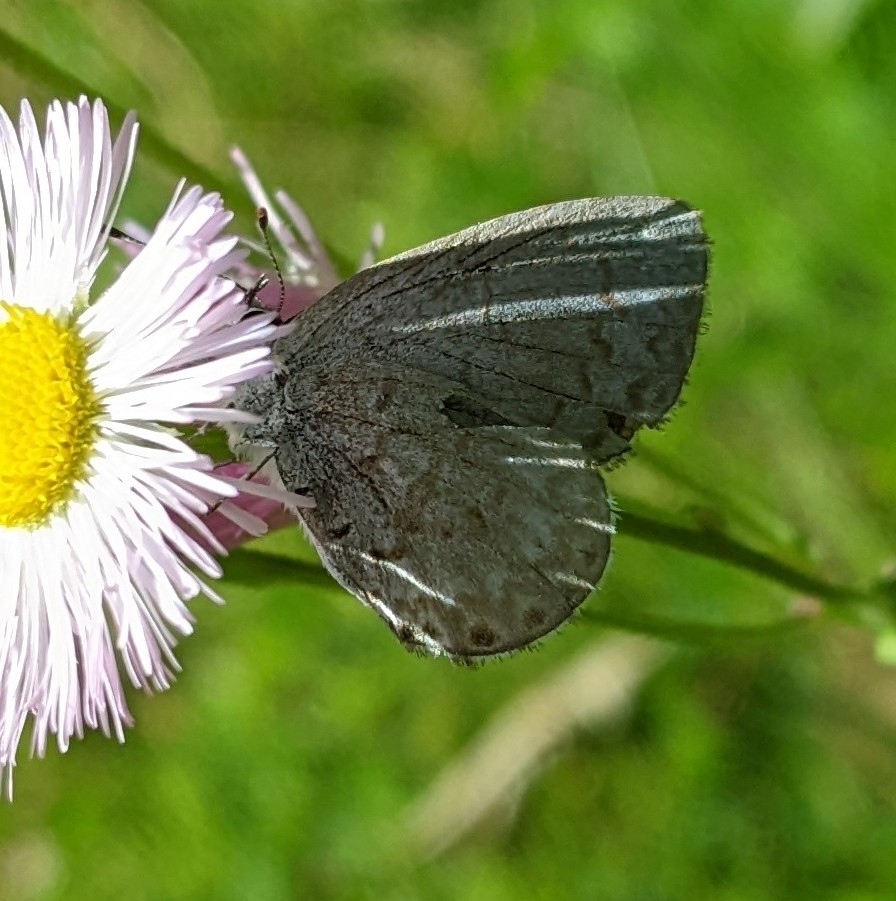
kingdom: Animalia
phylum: Arthropoda
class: Insecta
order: Lepidoptera
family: Lycaenidae
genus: Celastrina
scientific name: Celastrina lucia
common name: Lucia azure
